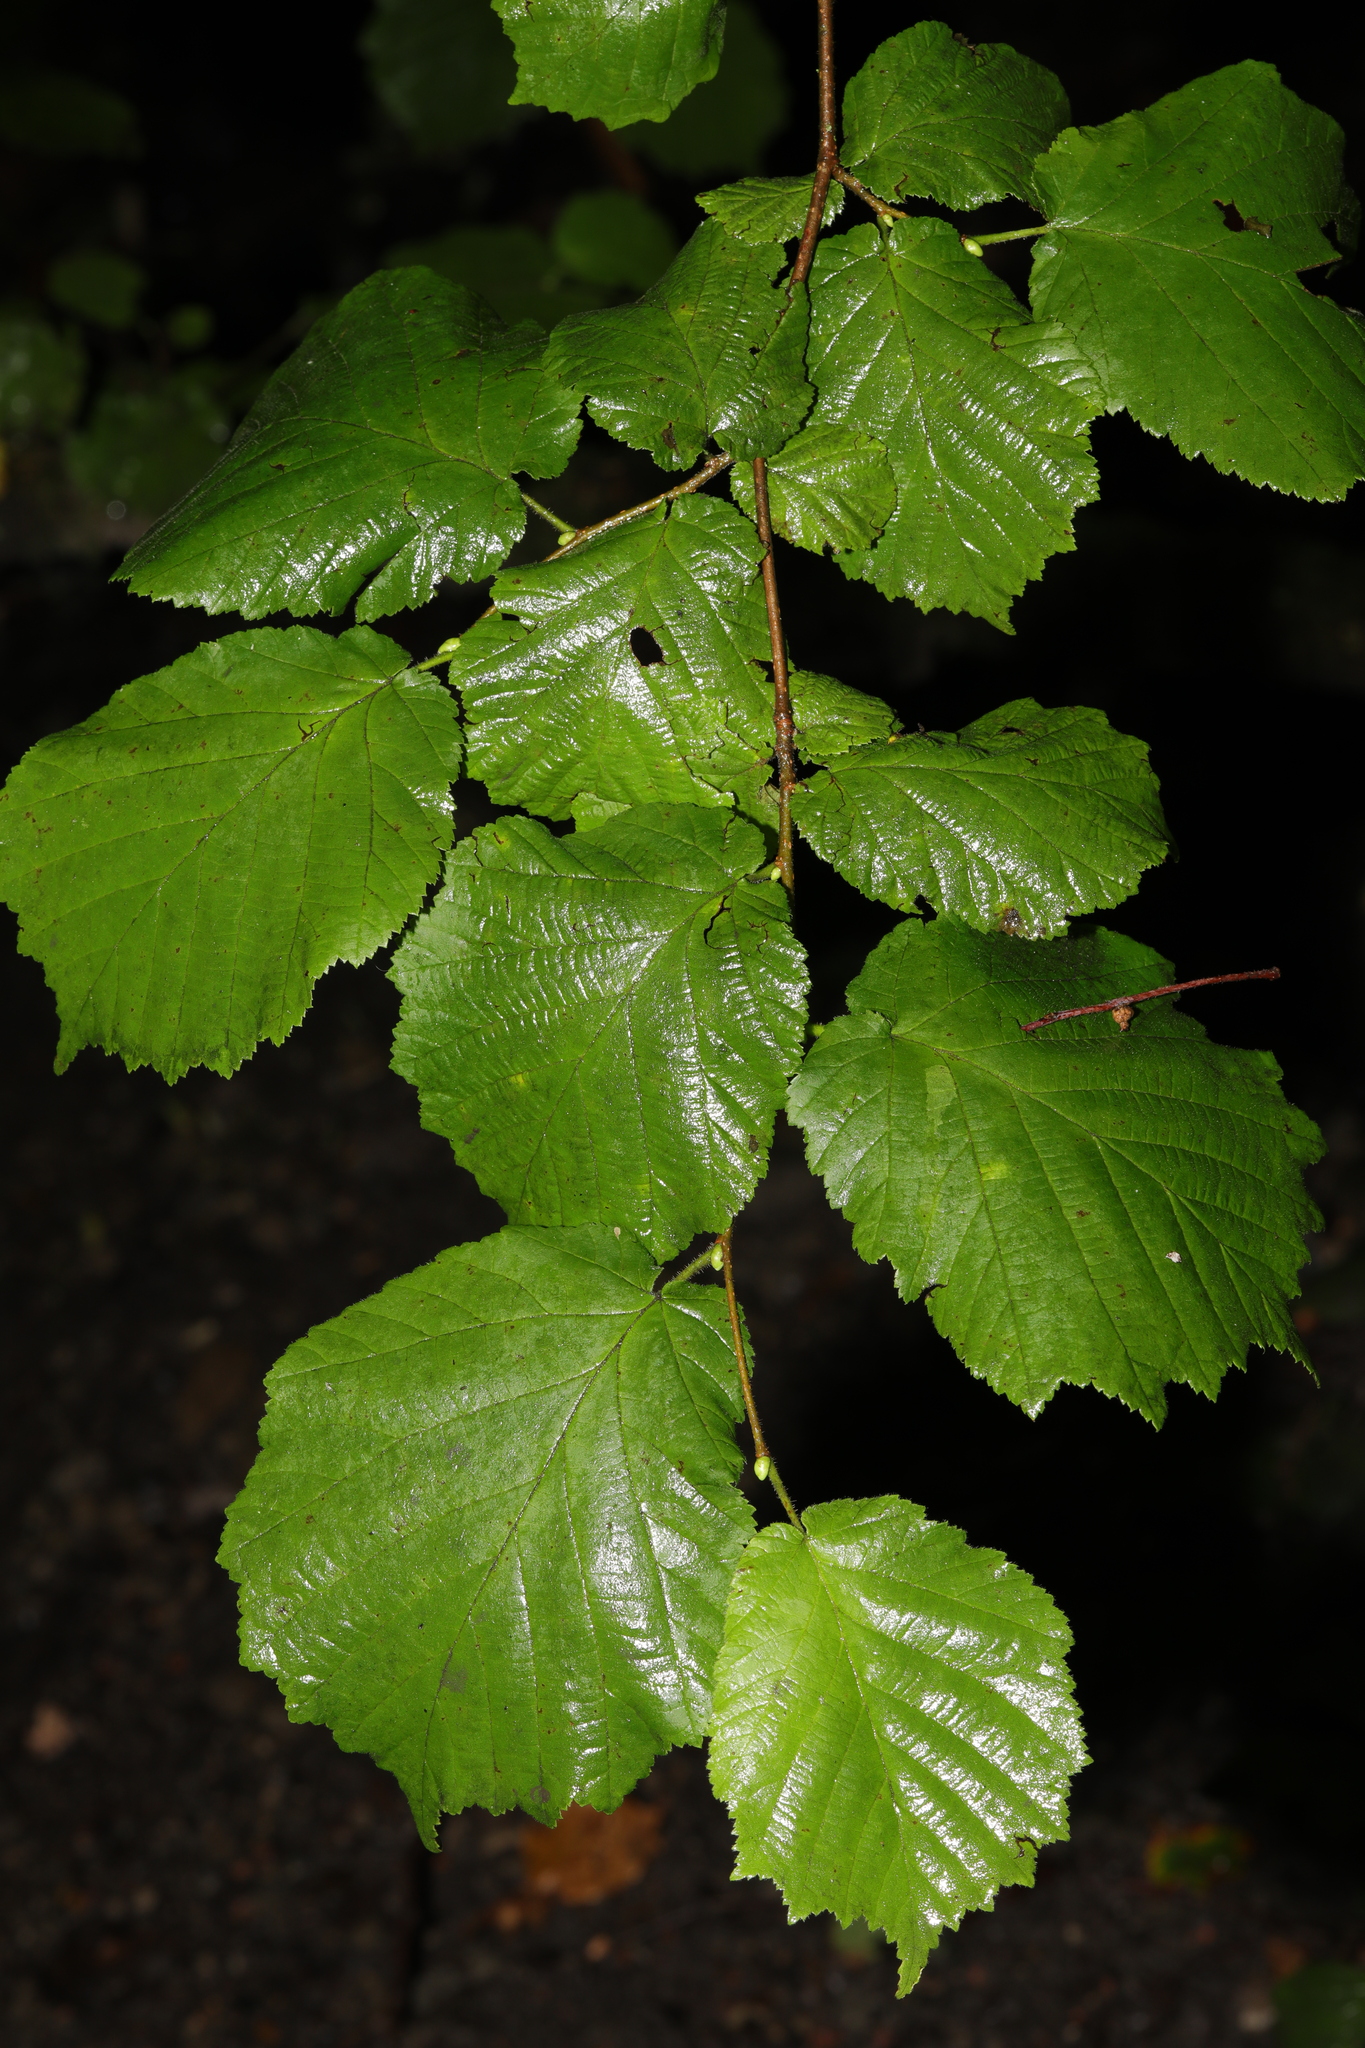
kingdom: Plantae
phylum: Tracheophyta
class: Magnoliopsida
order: Fagales
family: Betulaceae
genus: Corylus
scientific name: Corylus avellana
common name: European hazel
